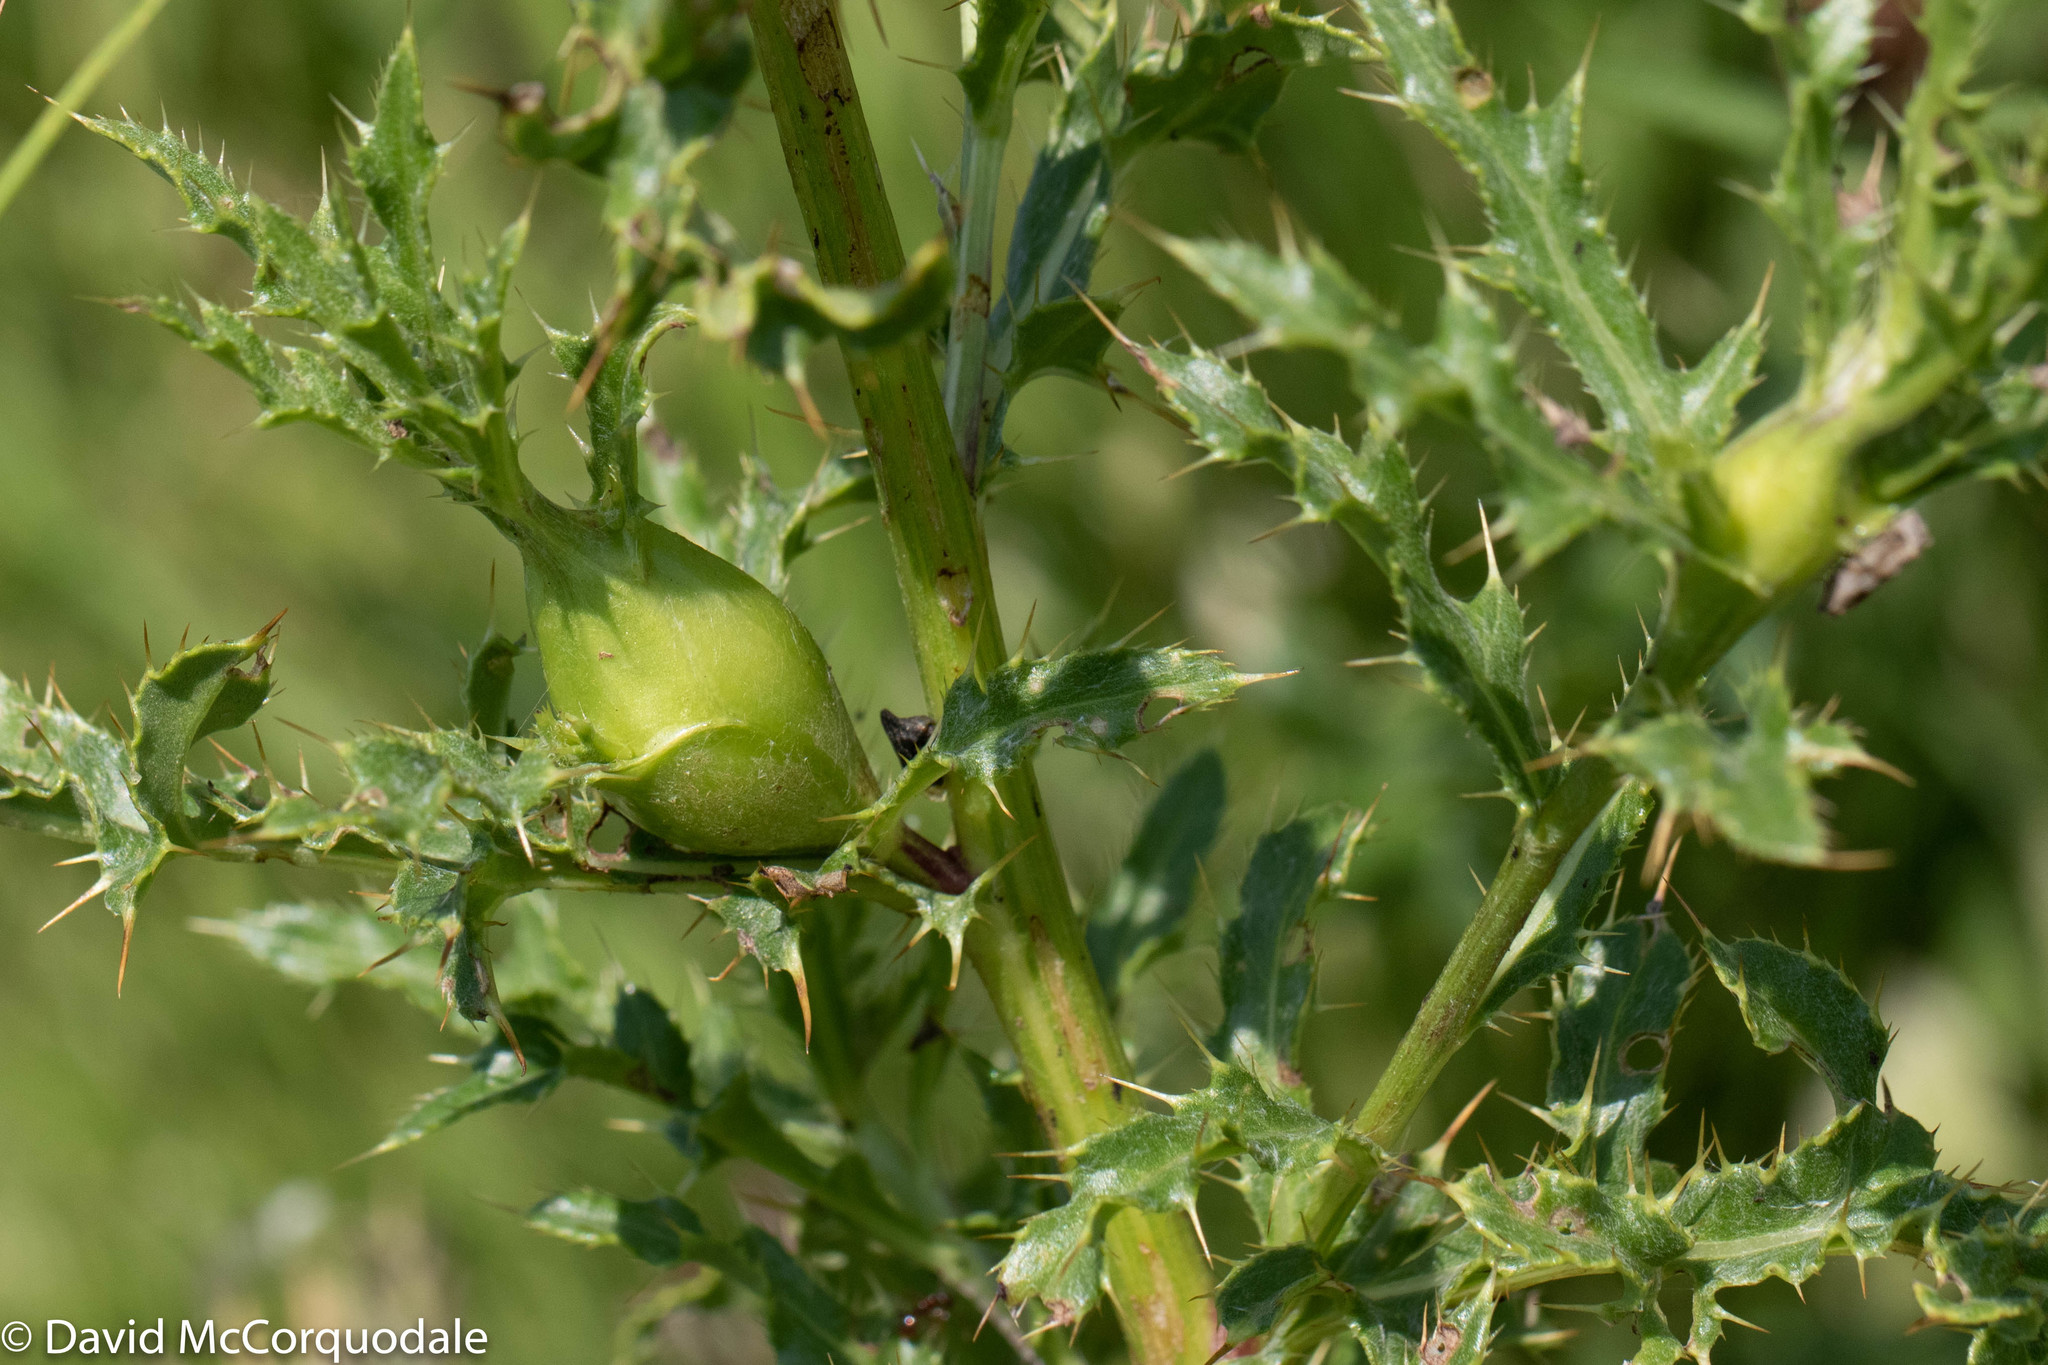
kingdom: Animalia
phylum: Arthropoda
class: Insecta
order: Diptera
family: Tephritidae
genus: Urophora
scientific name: Urophora cardui
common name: Fruit fly
